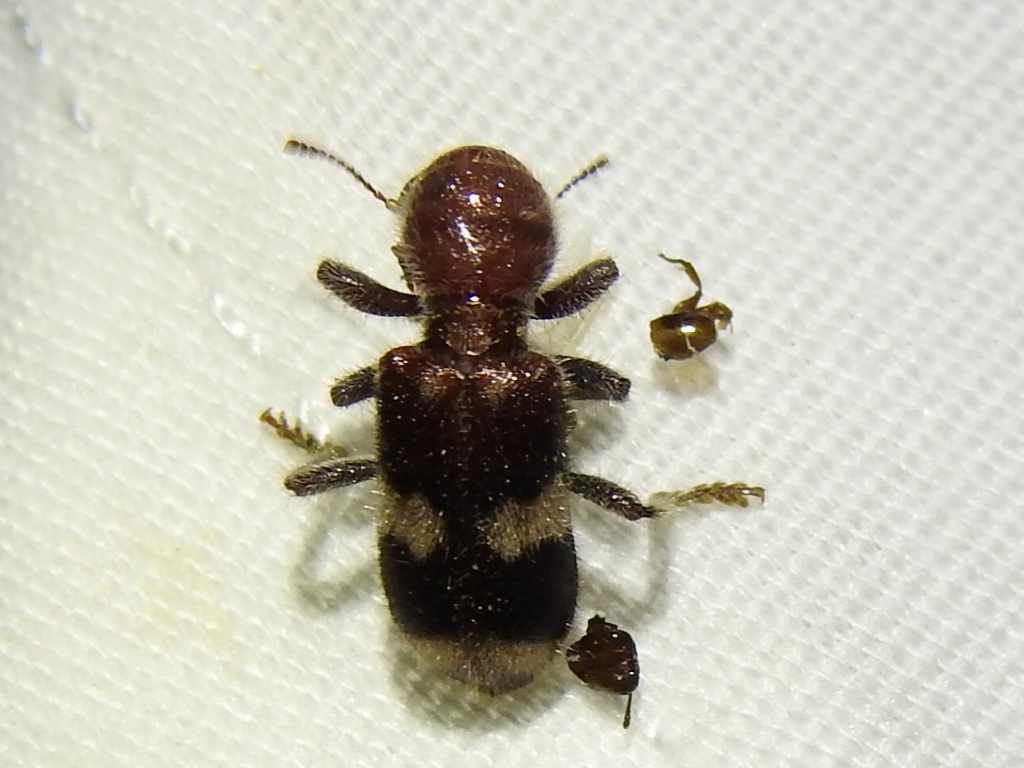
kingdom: Animalia
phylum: Arthropoda
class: Insecta
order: Coleoptera
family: Cleridae
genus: Enoclerus
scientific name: Enoclerus quadrisignatus
